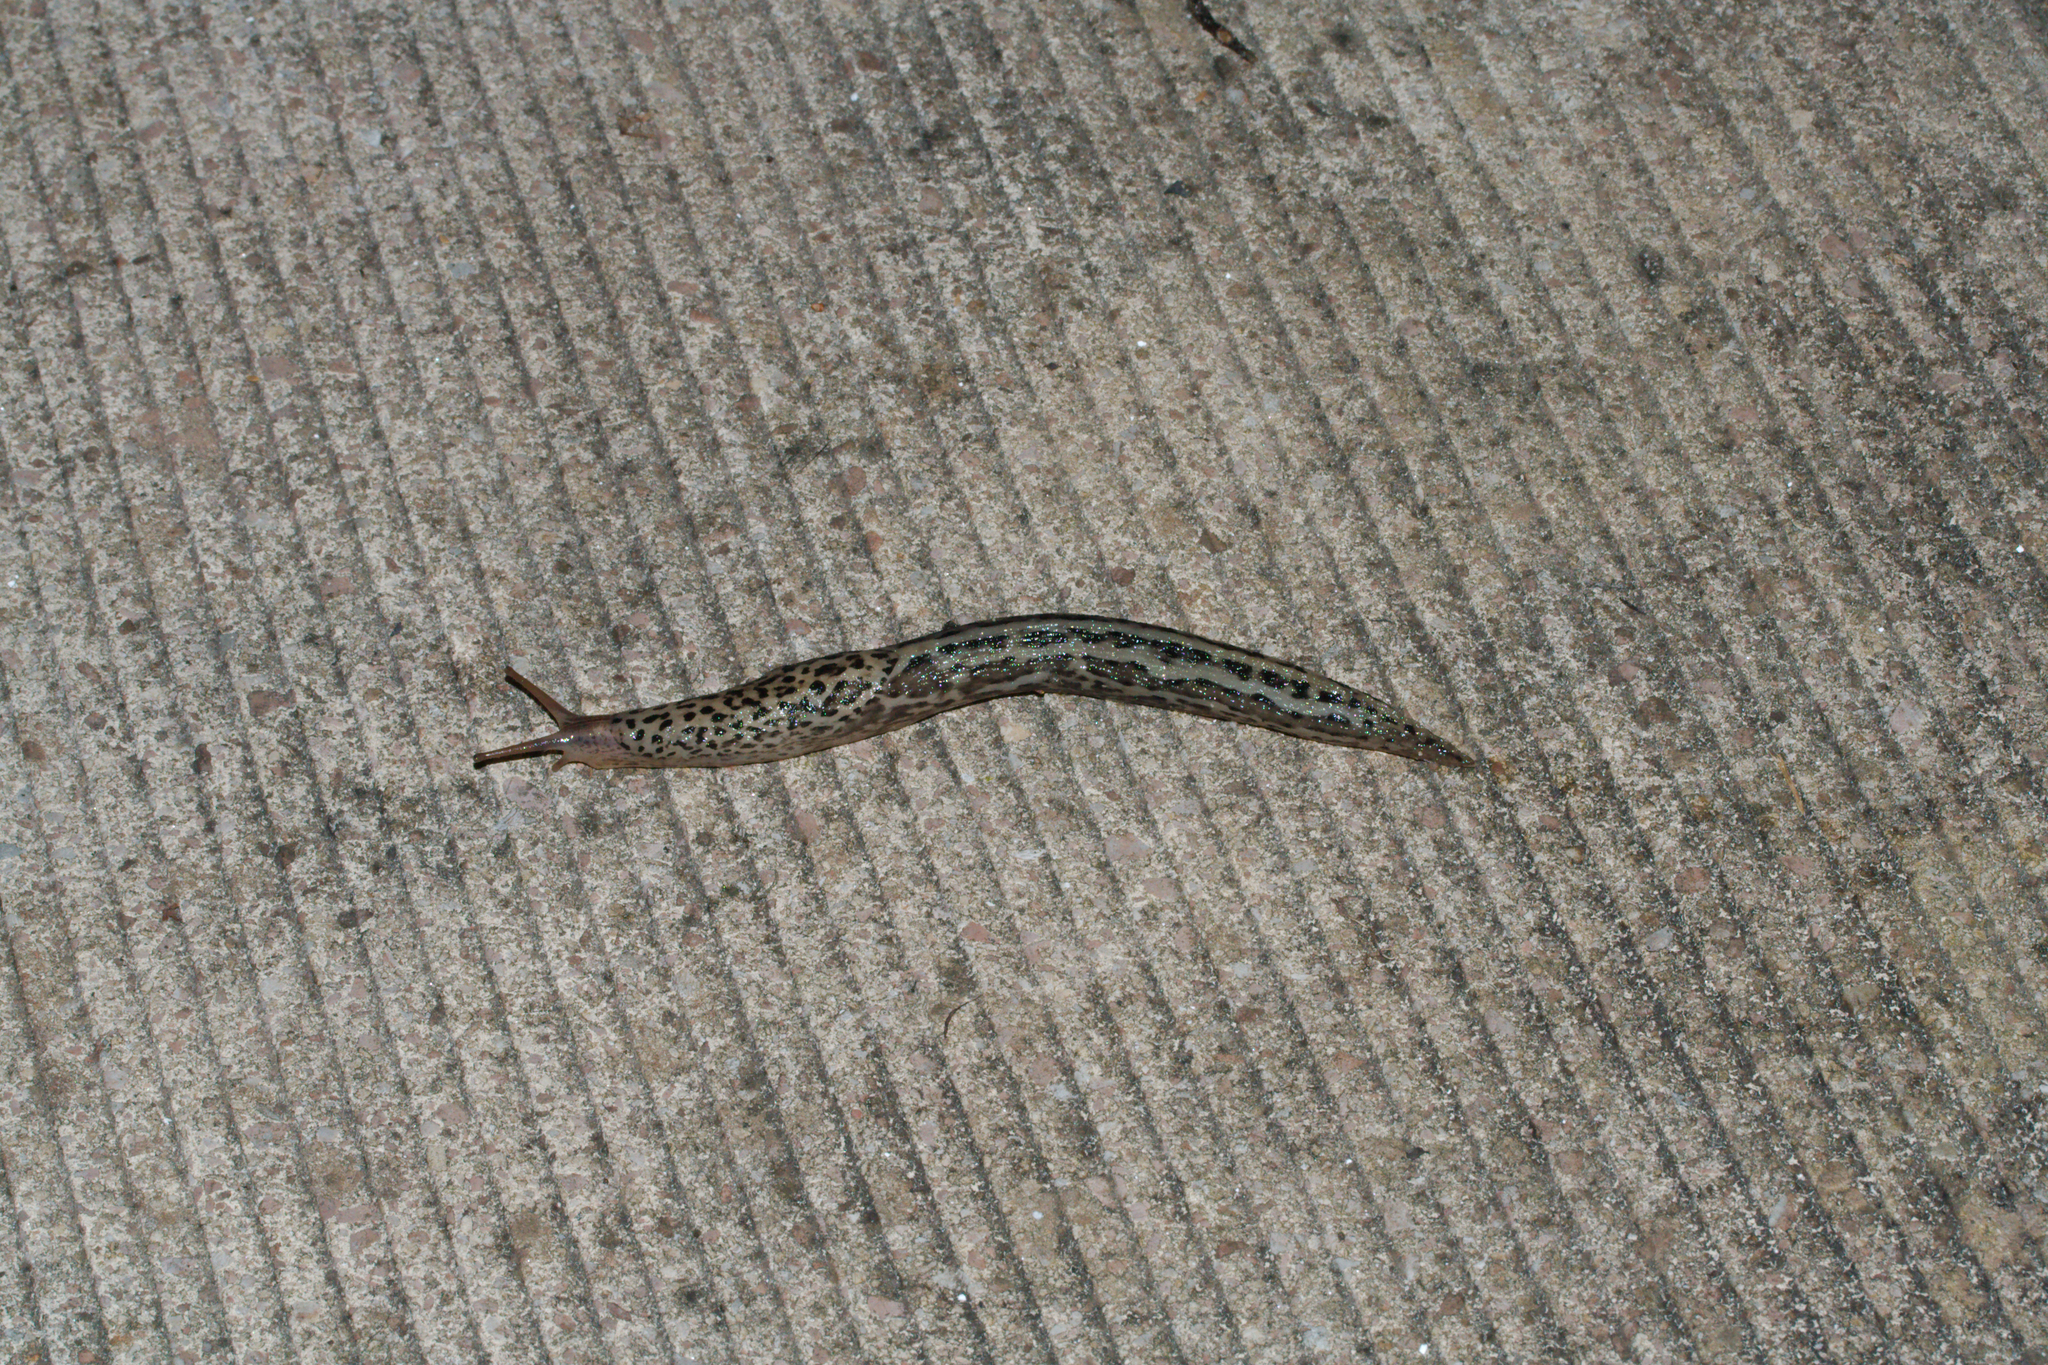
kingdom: Animalia
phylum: Mollusca
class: Gastropoda
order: Stylommatophora
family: Limacidae
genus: Limax
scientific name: Limax maximus
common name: Great grey slug
